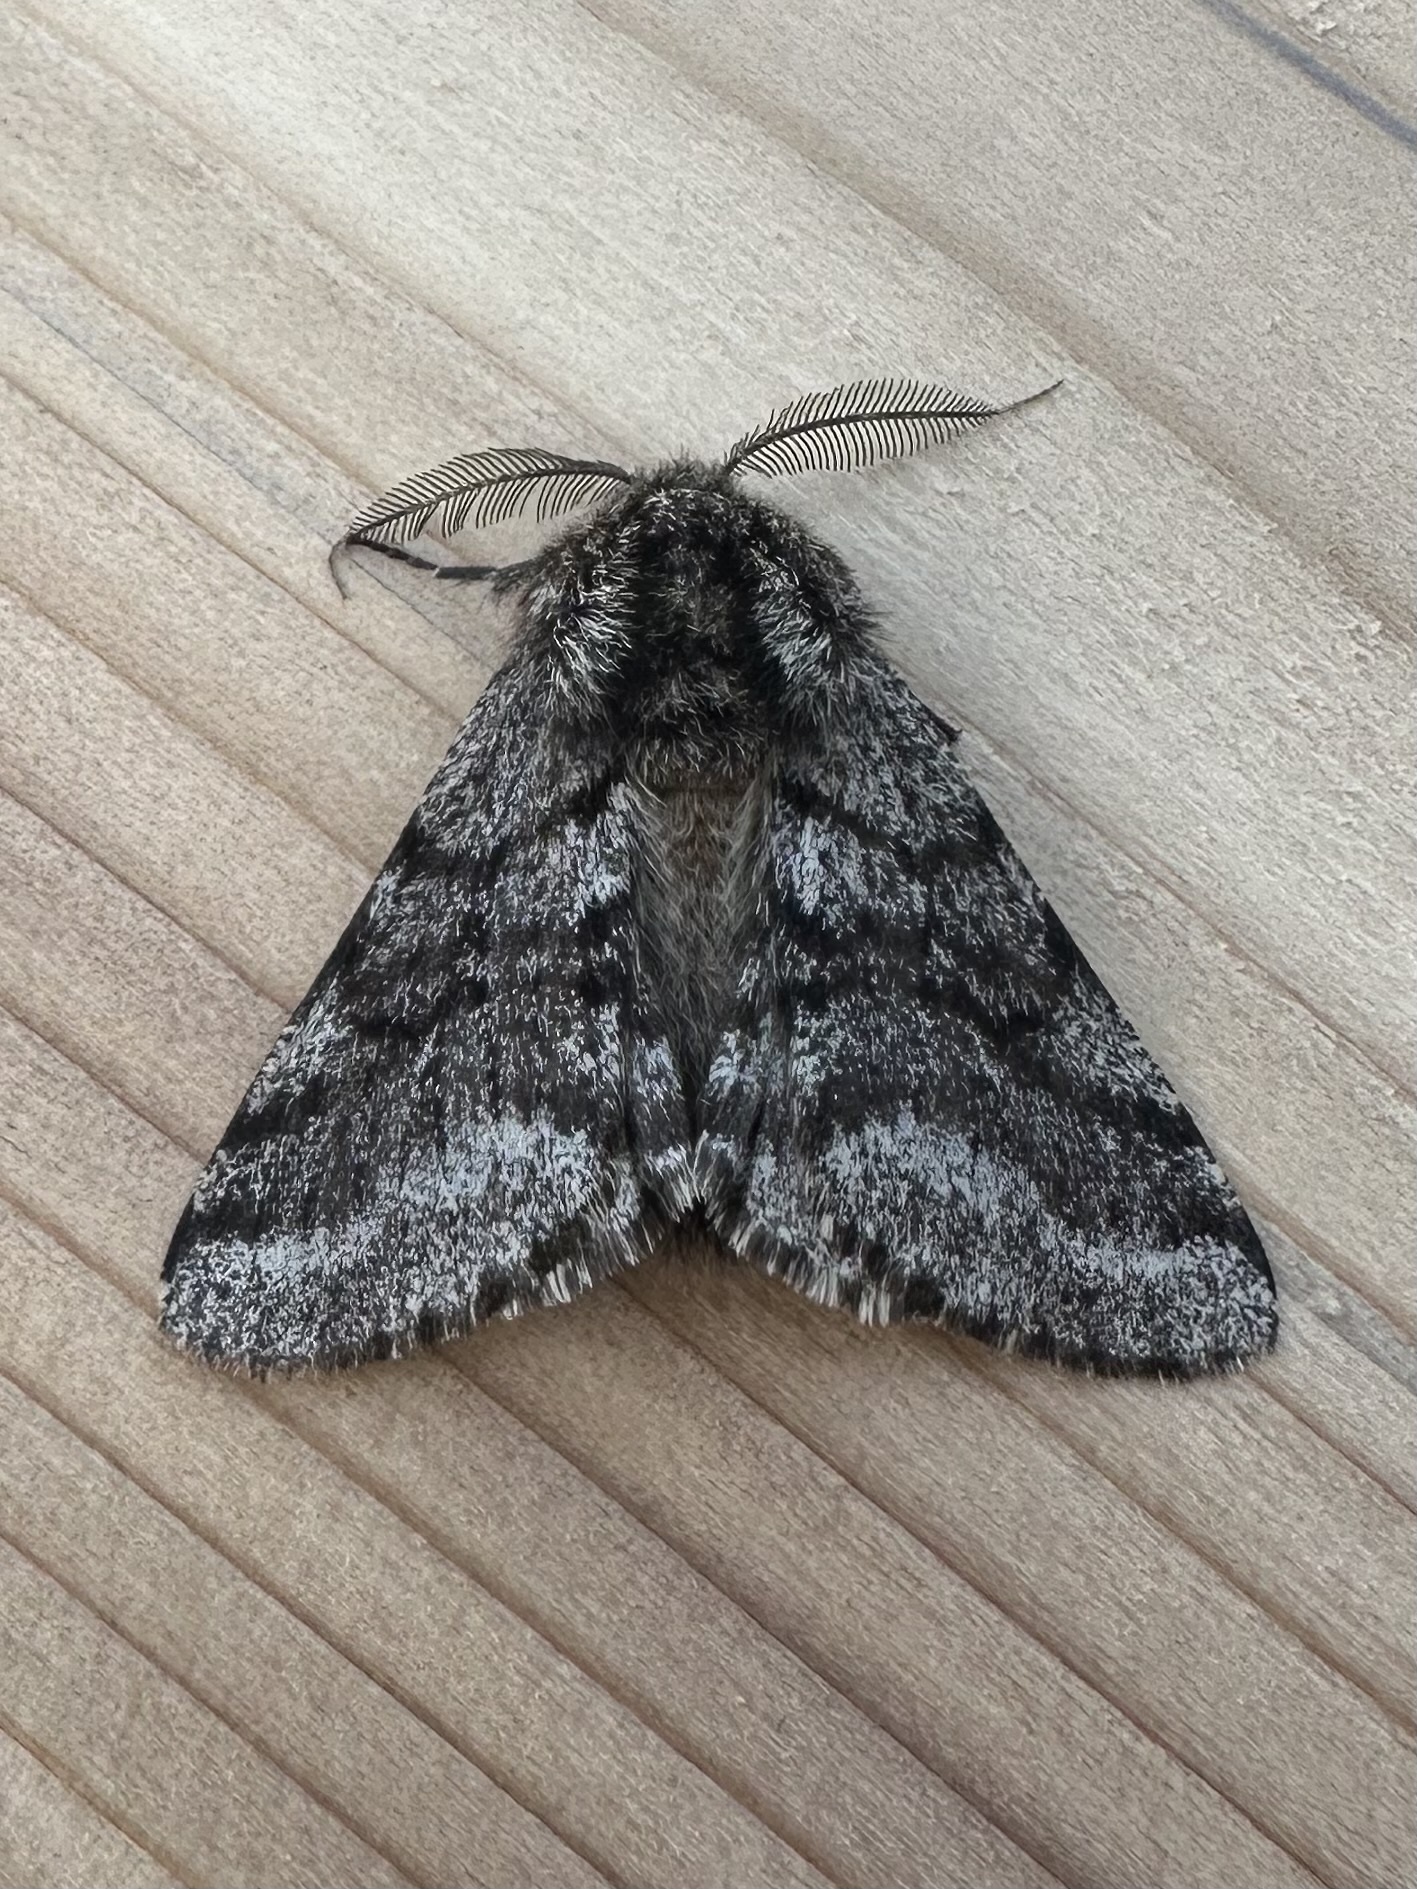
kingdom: Animalia
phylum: Arthropoda
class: Insecta
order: Lepidoptera
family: Geometridae
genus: Lycia
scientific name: Lycia ursaria
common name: Stout spanworm
